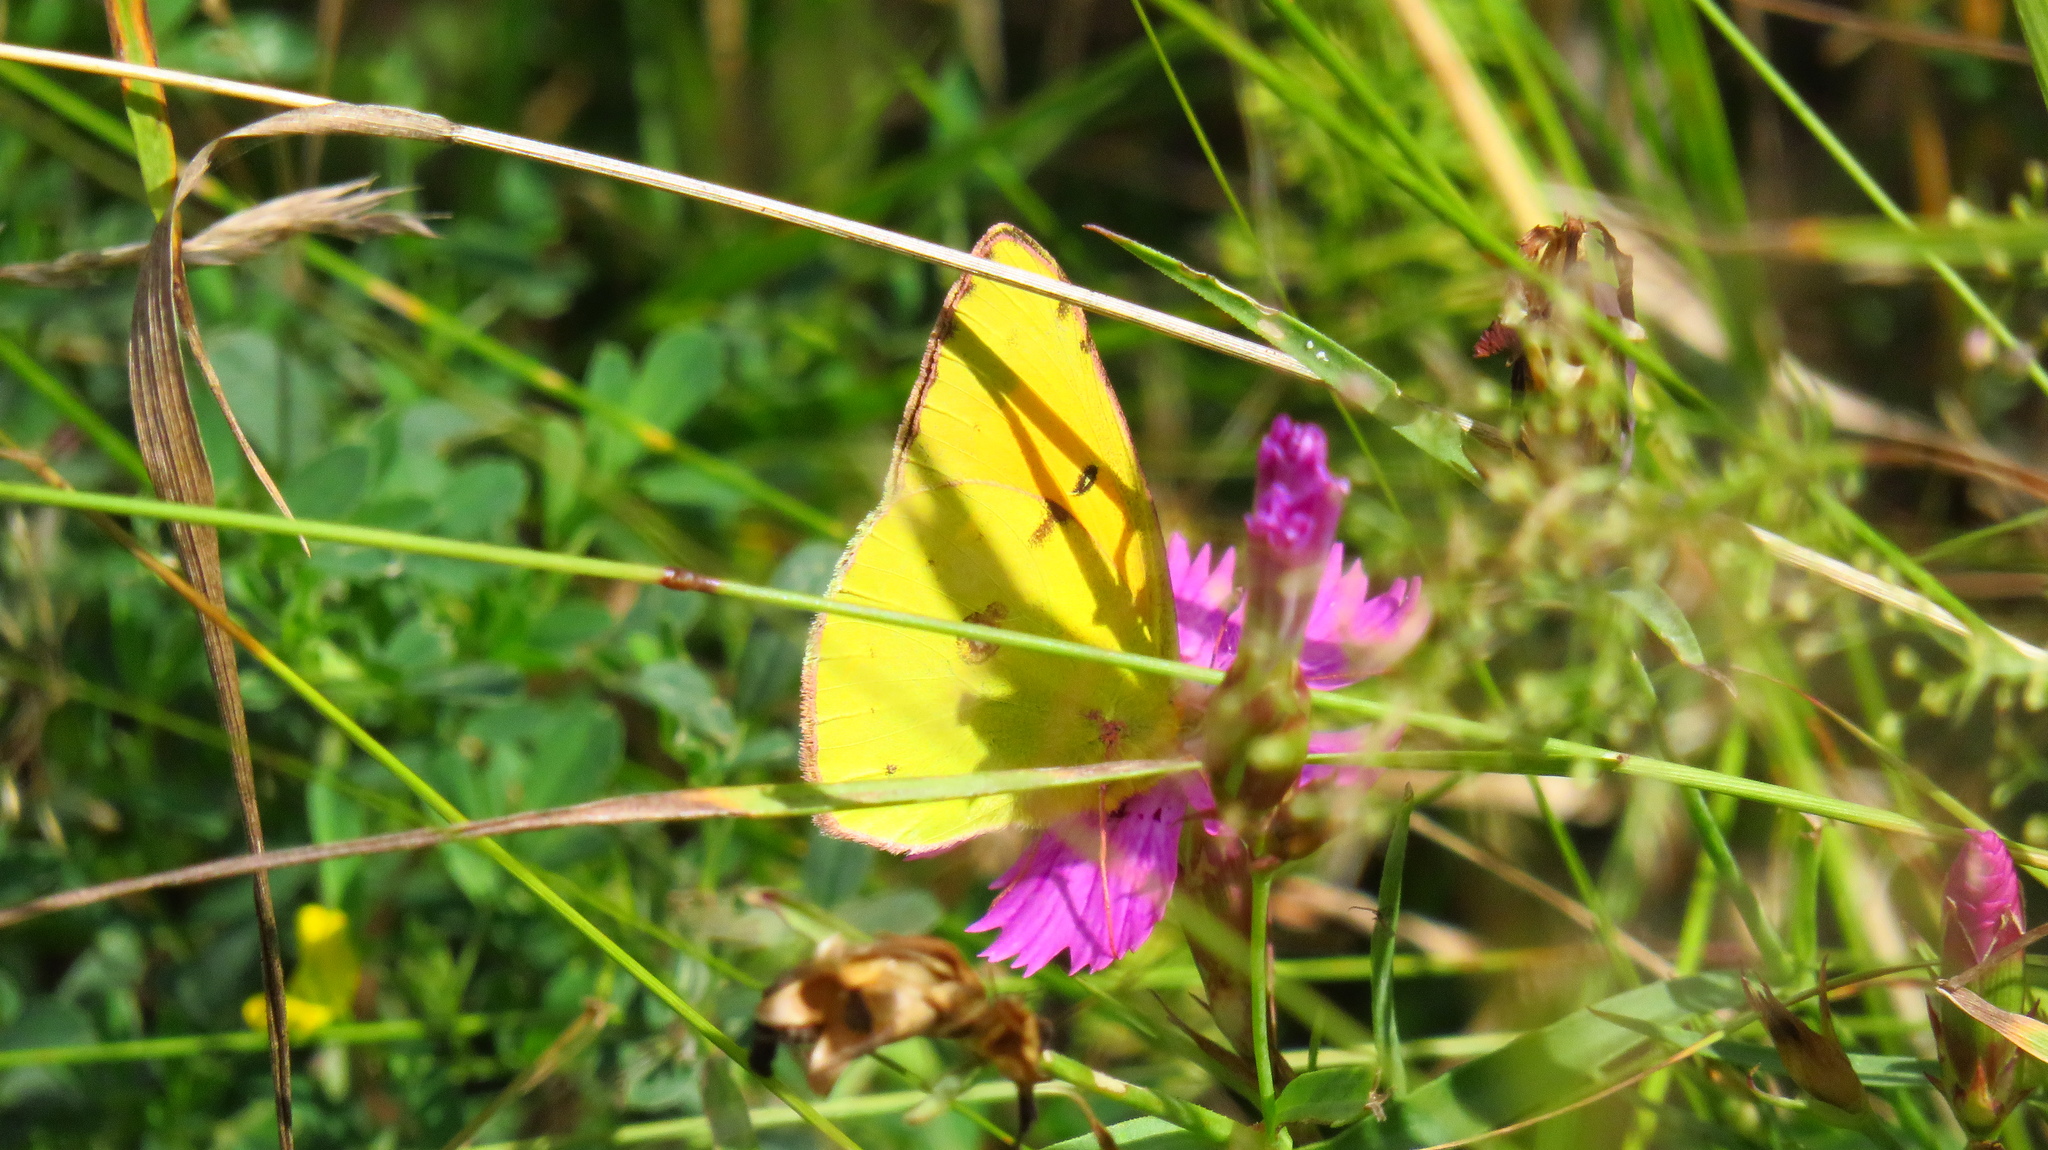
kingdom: Animalia
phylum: Arthropoda
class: Insecta
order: Lepidoptera
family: Pieridae
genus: Colias
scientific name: Colias myrmidone
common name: Danube clouded yellow
